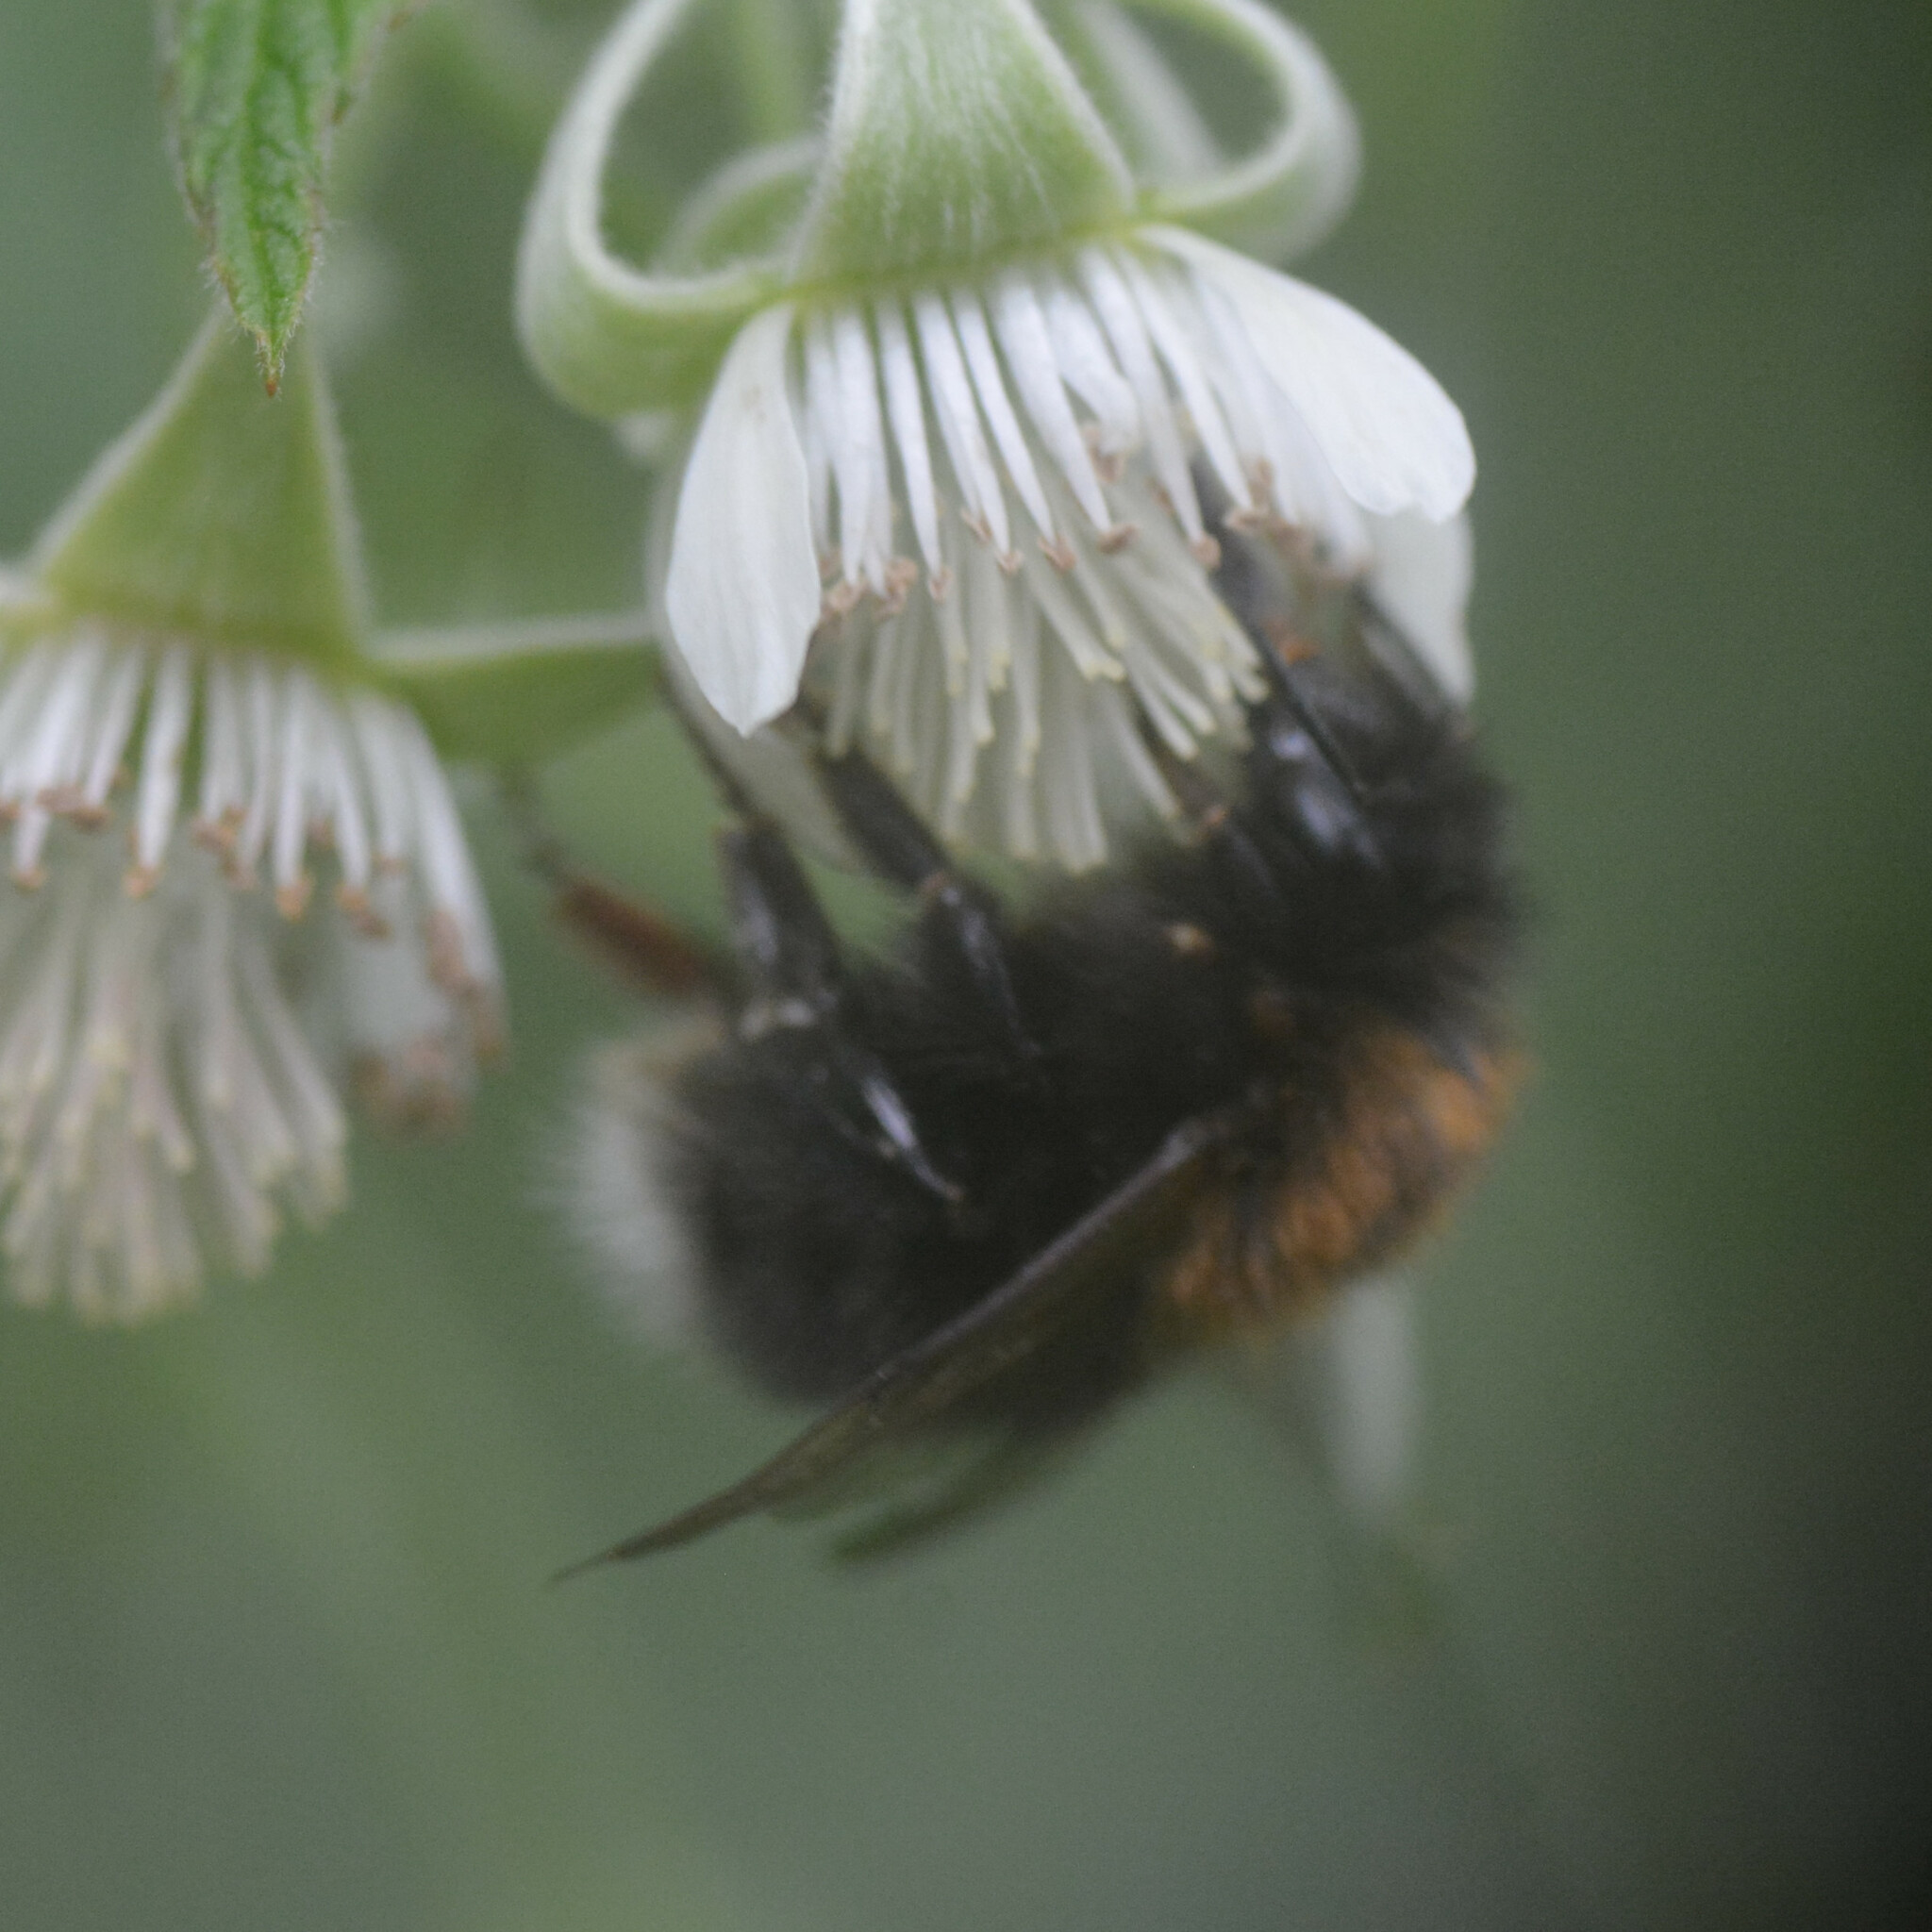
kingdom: Animalia
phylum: Arthropoda
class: Insecta
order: Hymenoptera
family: Apidae
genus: Bombus
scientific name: Bombus hypnorum
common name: New garden bumblebee
